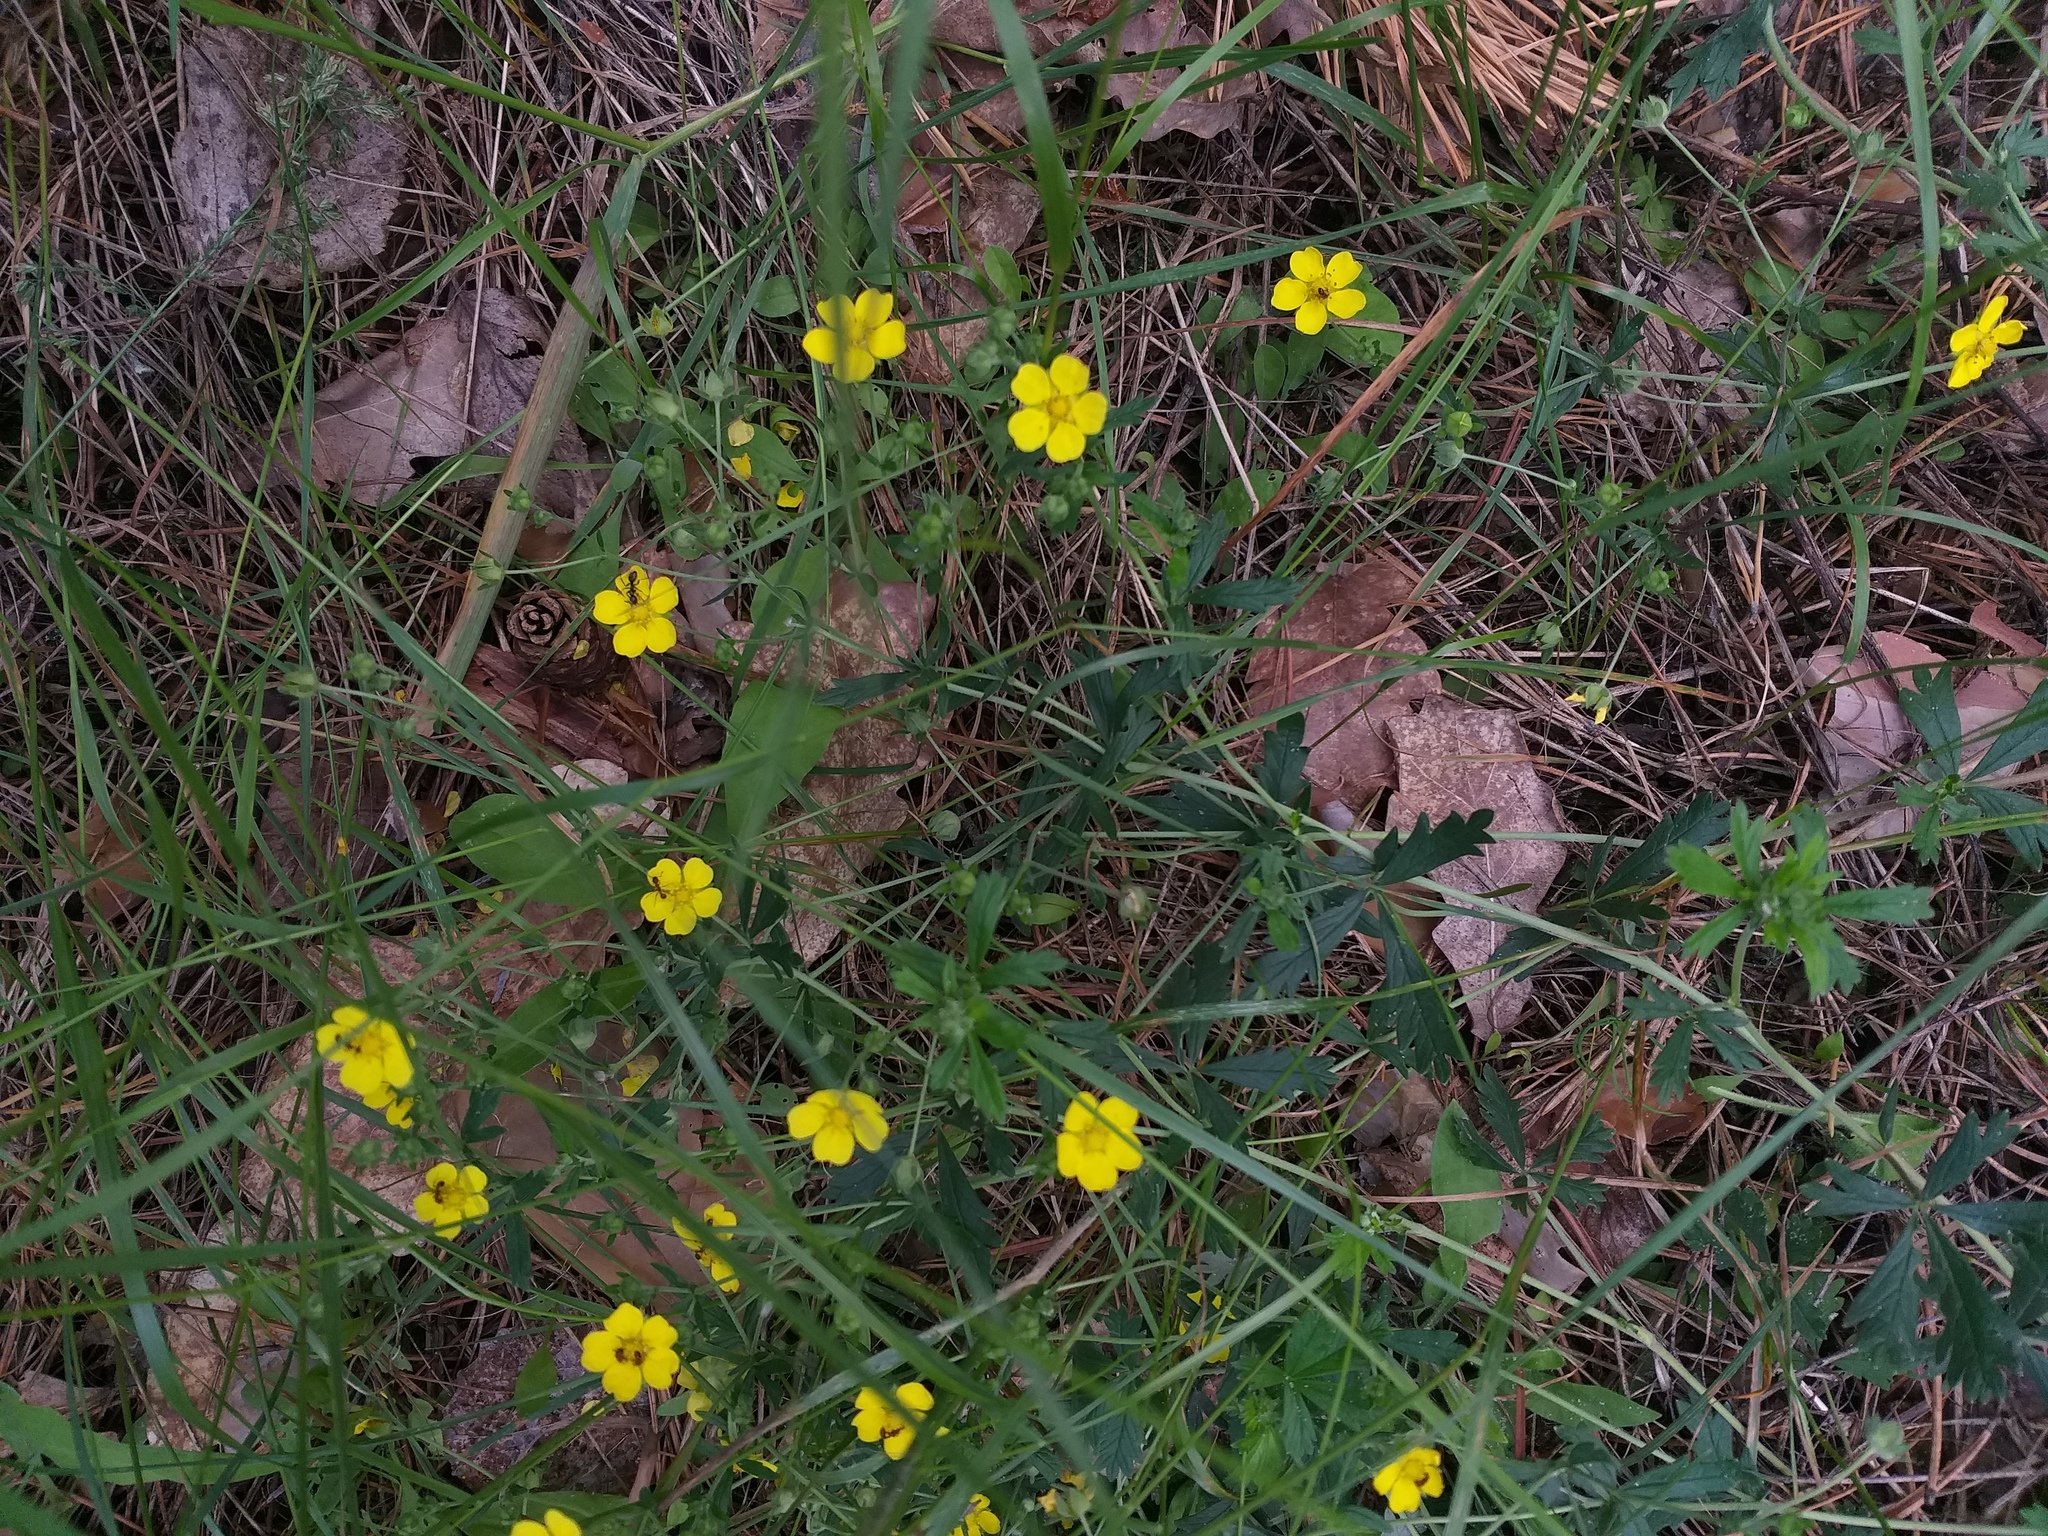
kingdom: Plantae
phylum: Tracheophyta
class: Magnoliopsida
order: Rosales
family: Rosaceae
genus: Potentilla
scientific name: Potentilla collina
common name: Palmleaf cinquefoil
